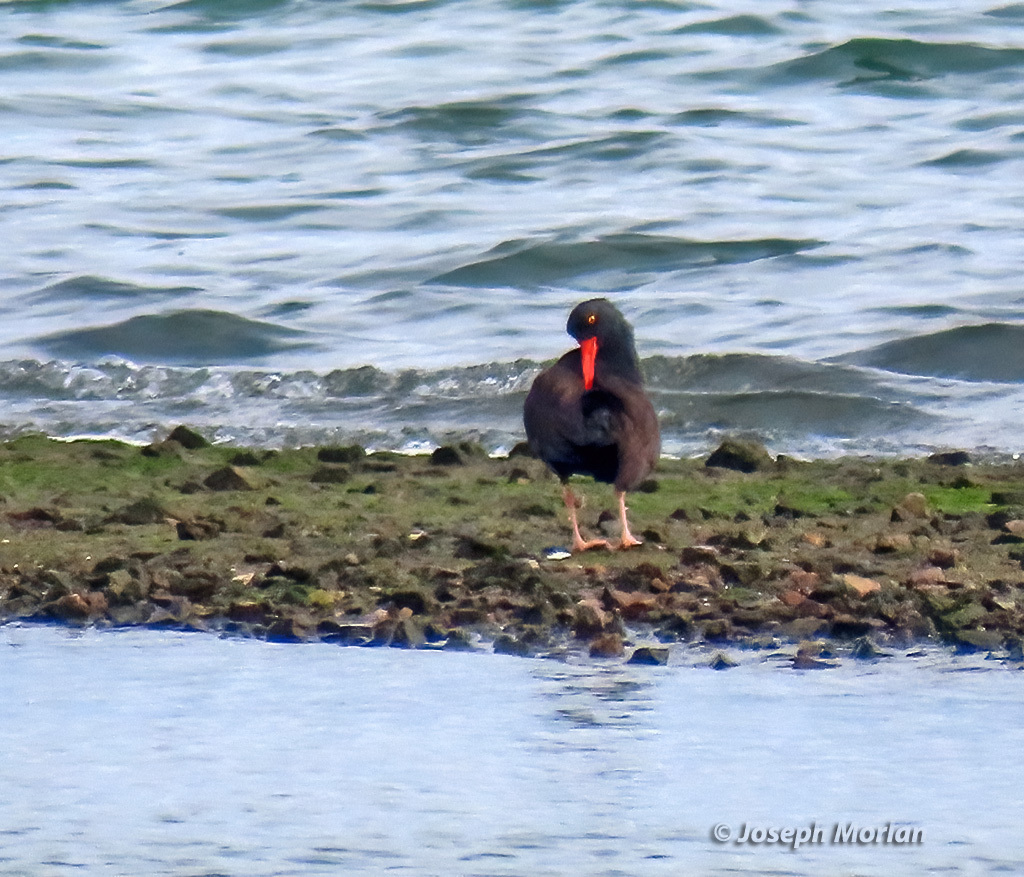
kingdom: Animalia
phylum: Chordata
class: Aves
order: Charadriiformes
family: Haematopodidae
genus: Haematopus
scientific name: Haematopus bachmani
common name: Black oystercatcher
